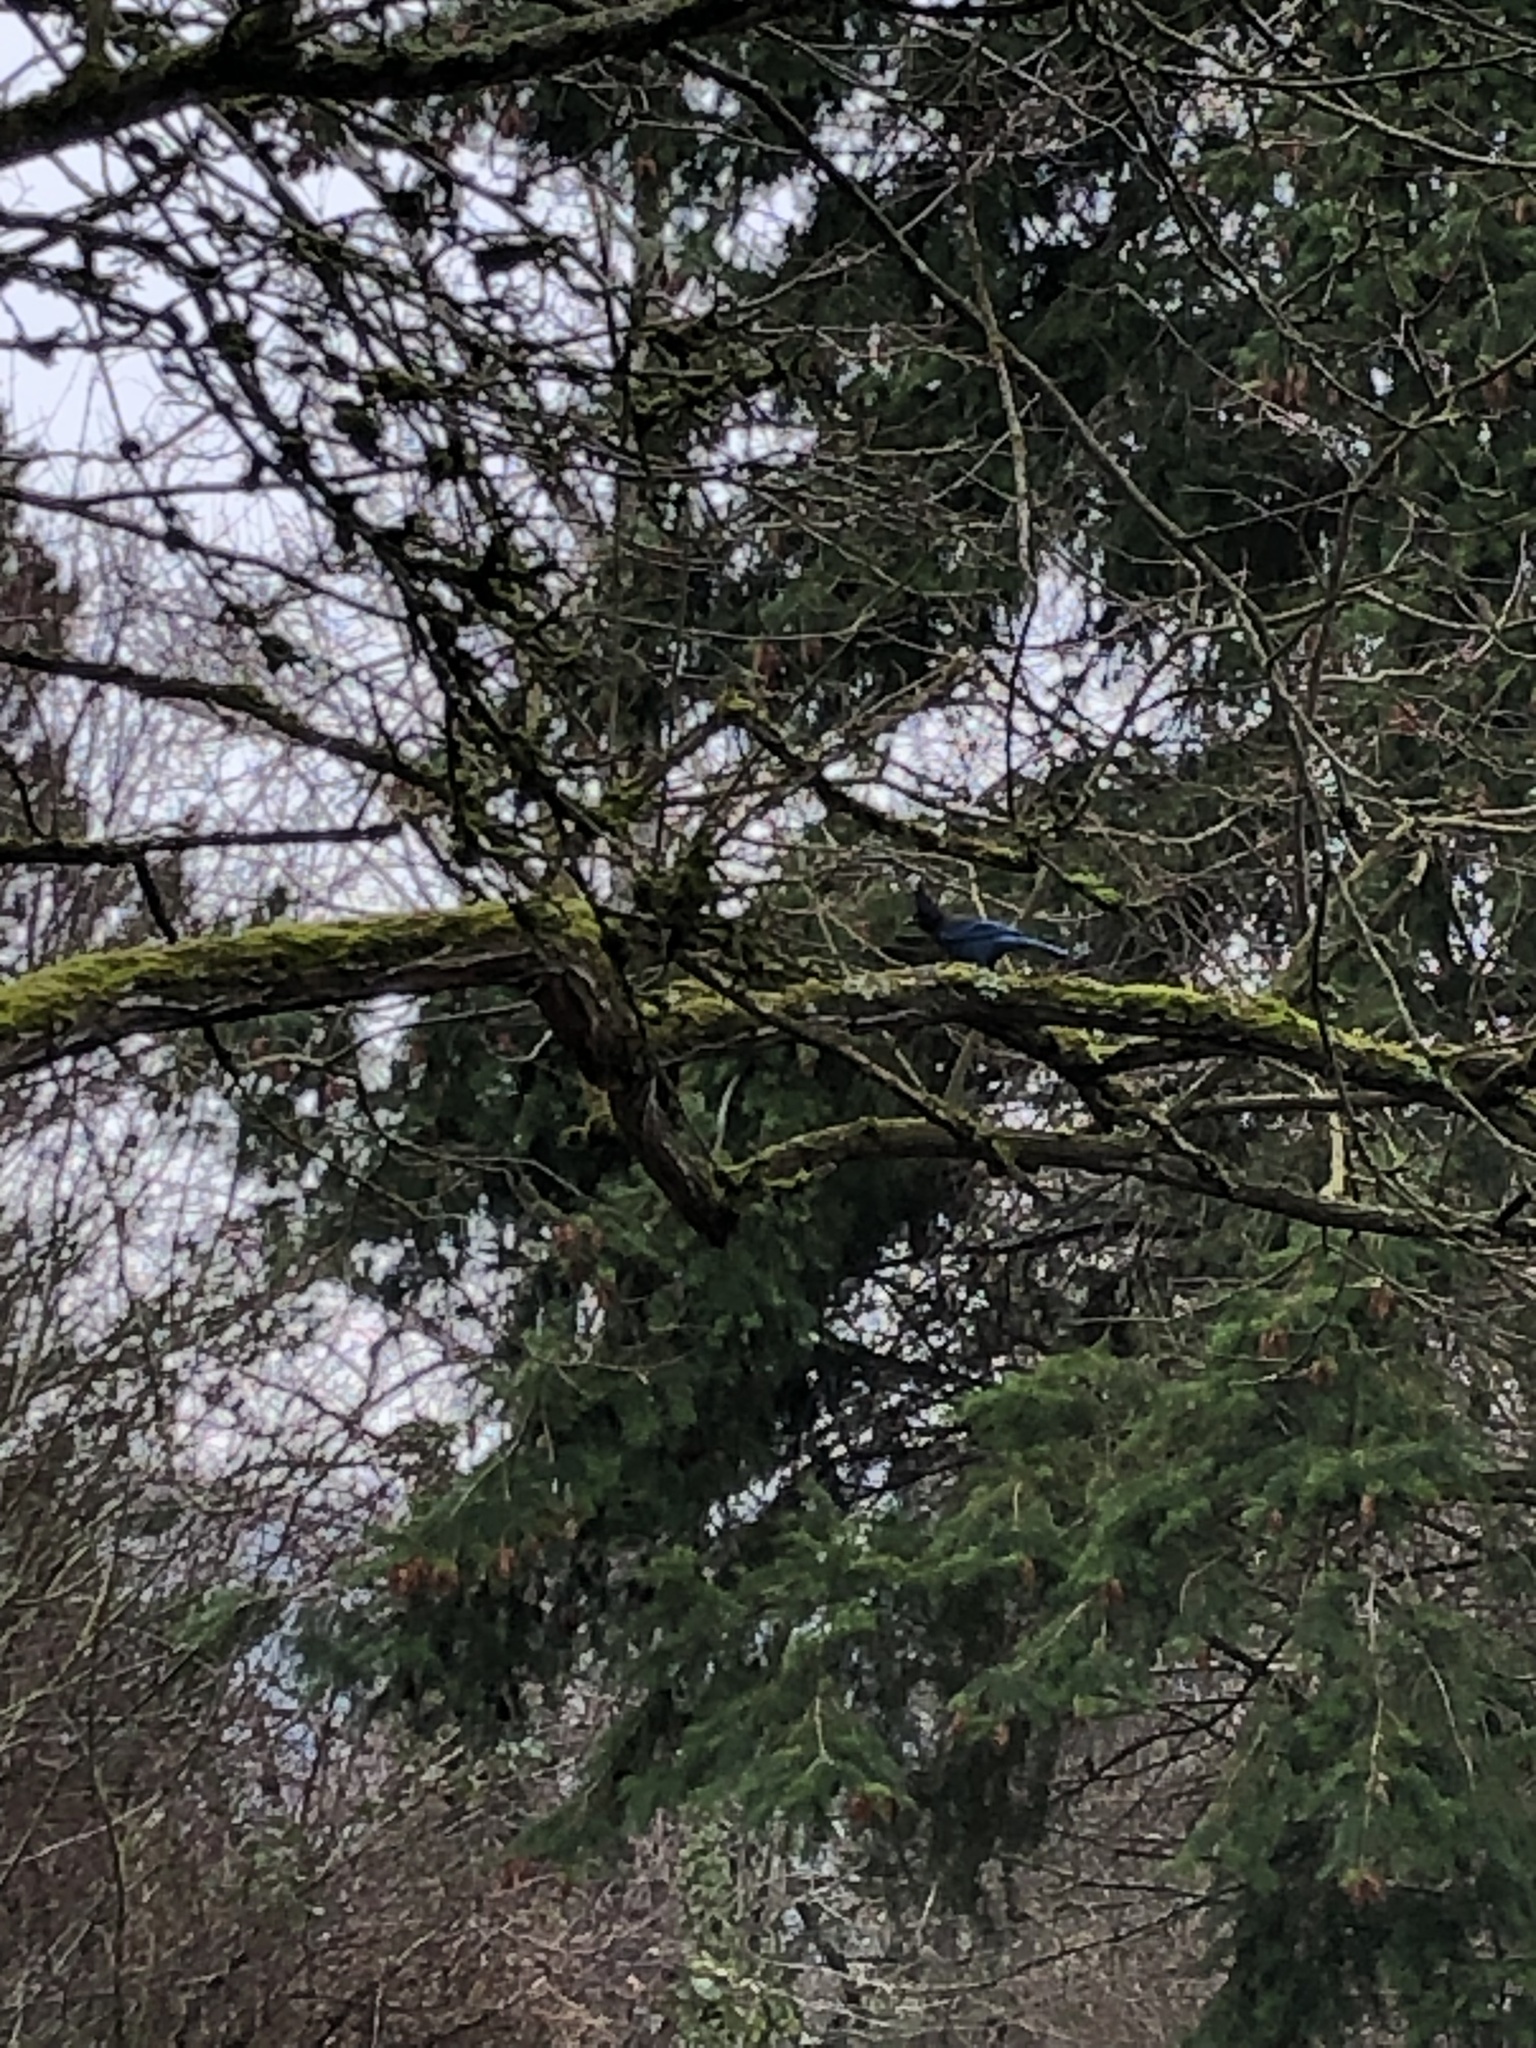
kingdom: Animalia
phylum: Chordata
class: Aves
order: Passeriformes
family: Corvidae
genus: Cyanocitta
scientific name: Cyanocitta stelleri
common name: Steller's jay
